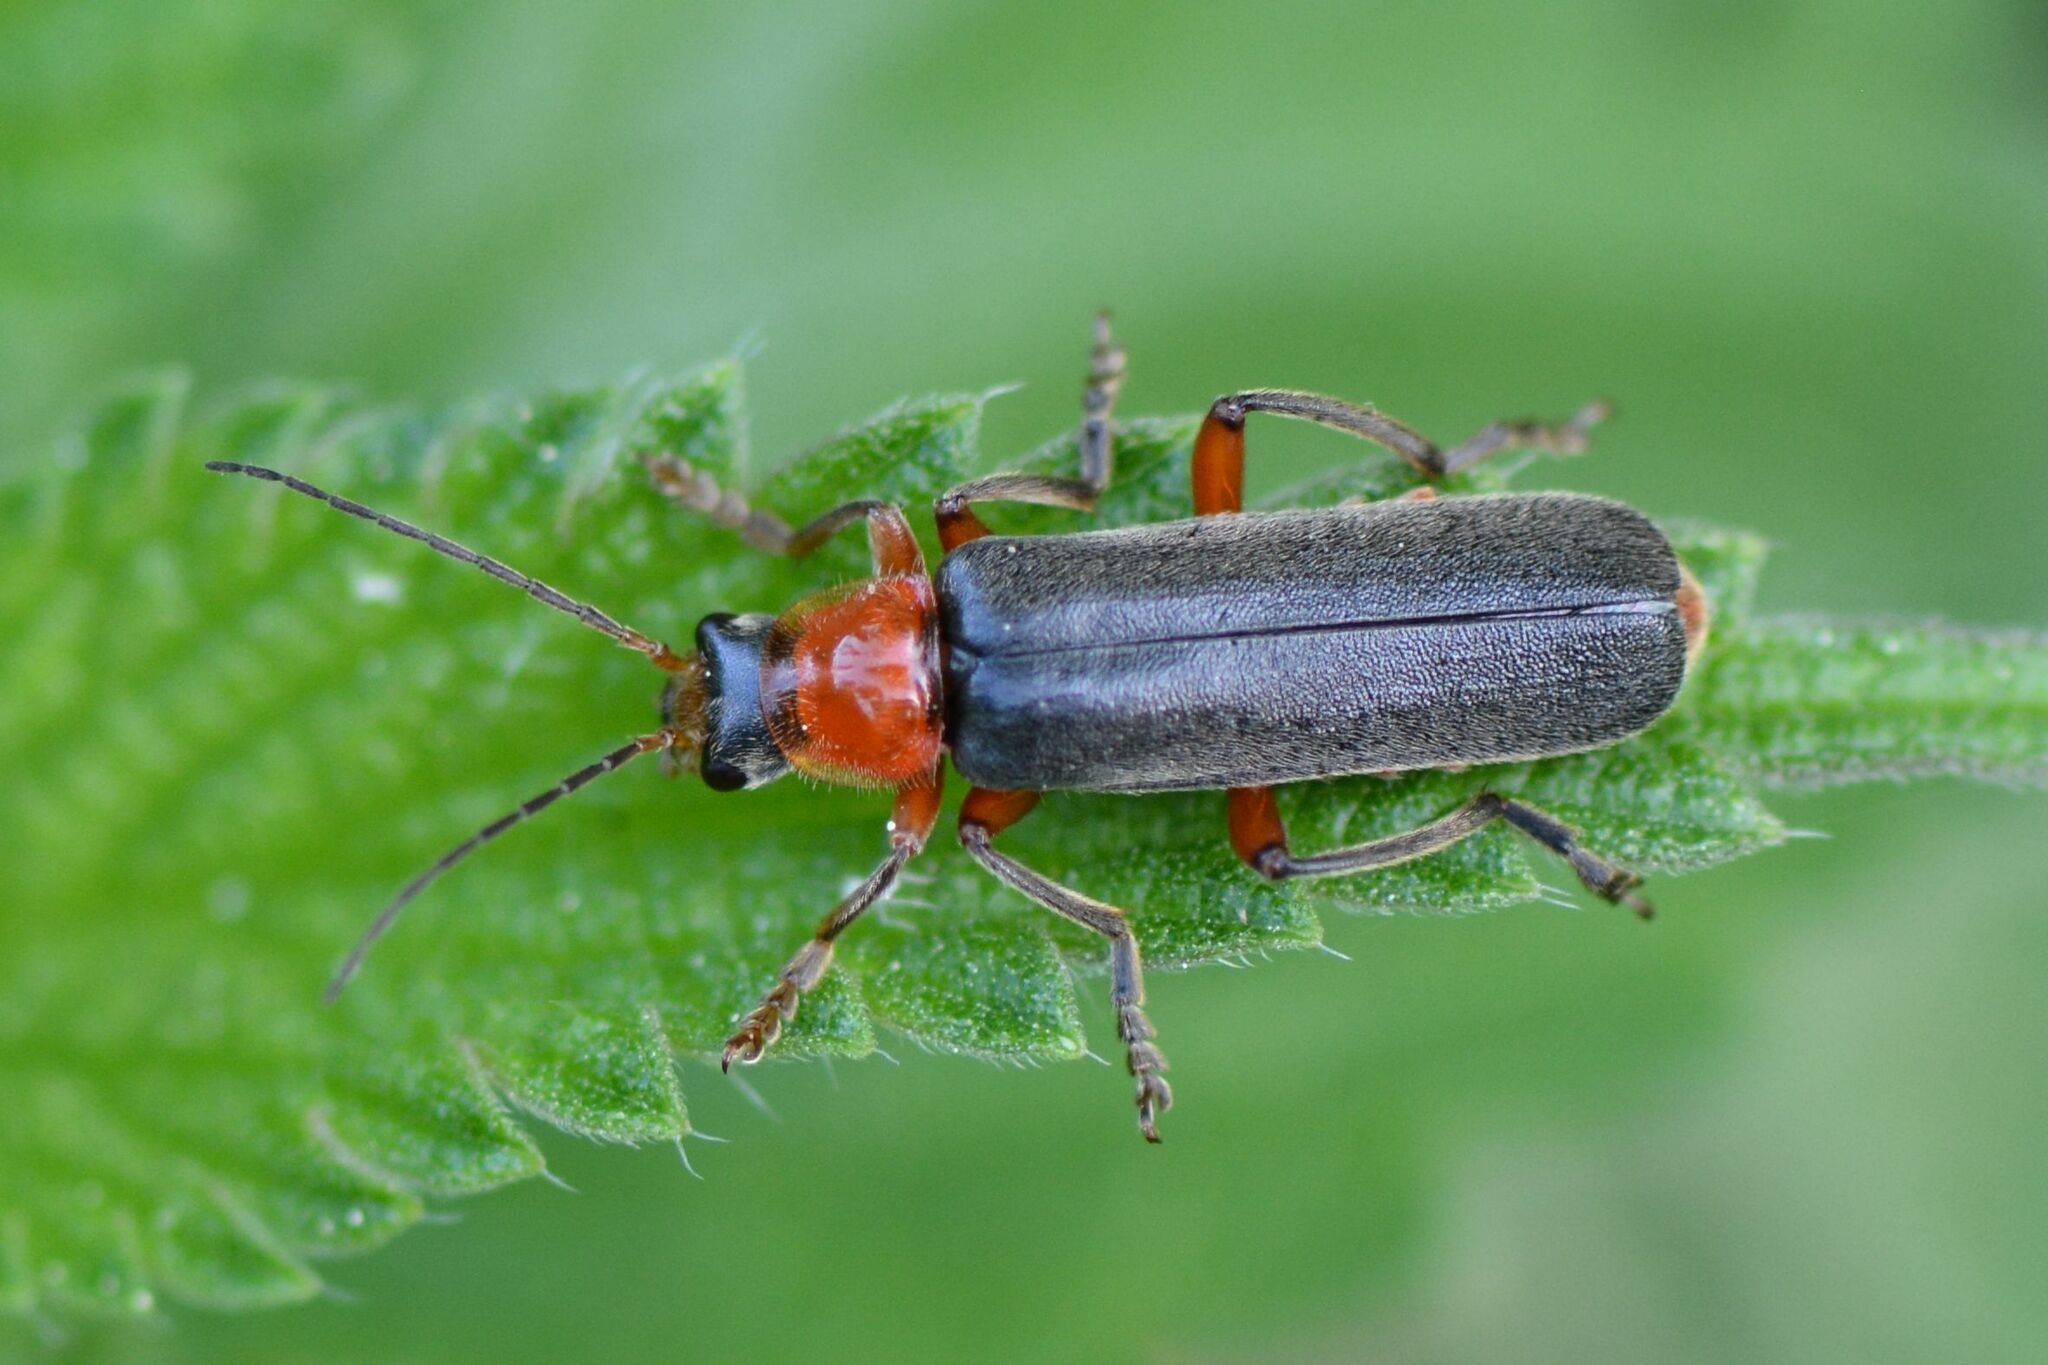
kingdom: Animalia
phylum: Arthropoda
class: Insecta
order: Coleoptera
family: Cantharidae
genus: Cantharis
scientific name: Cantharis pellucida
